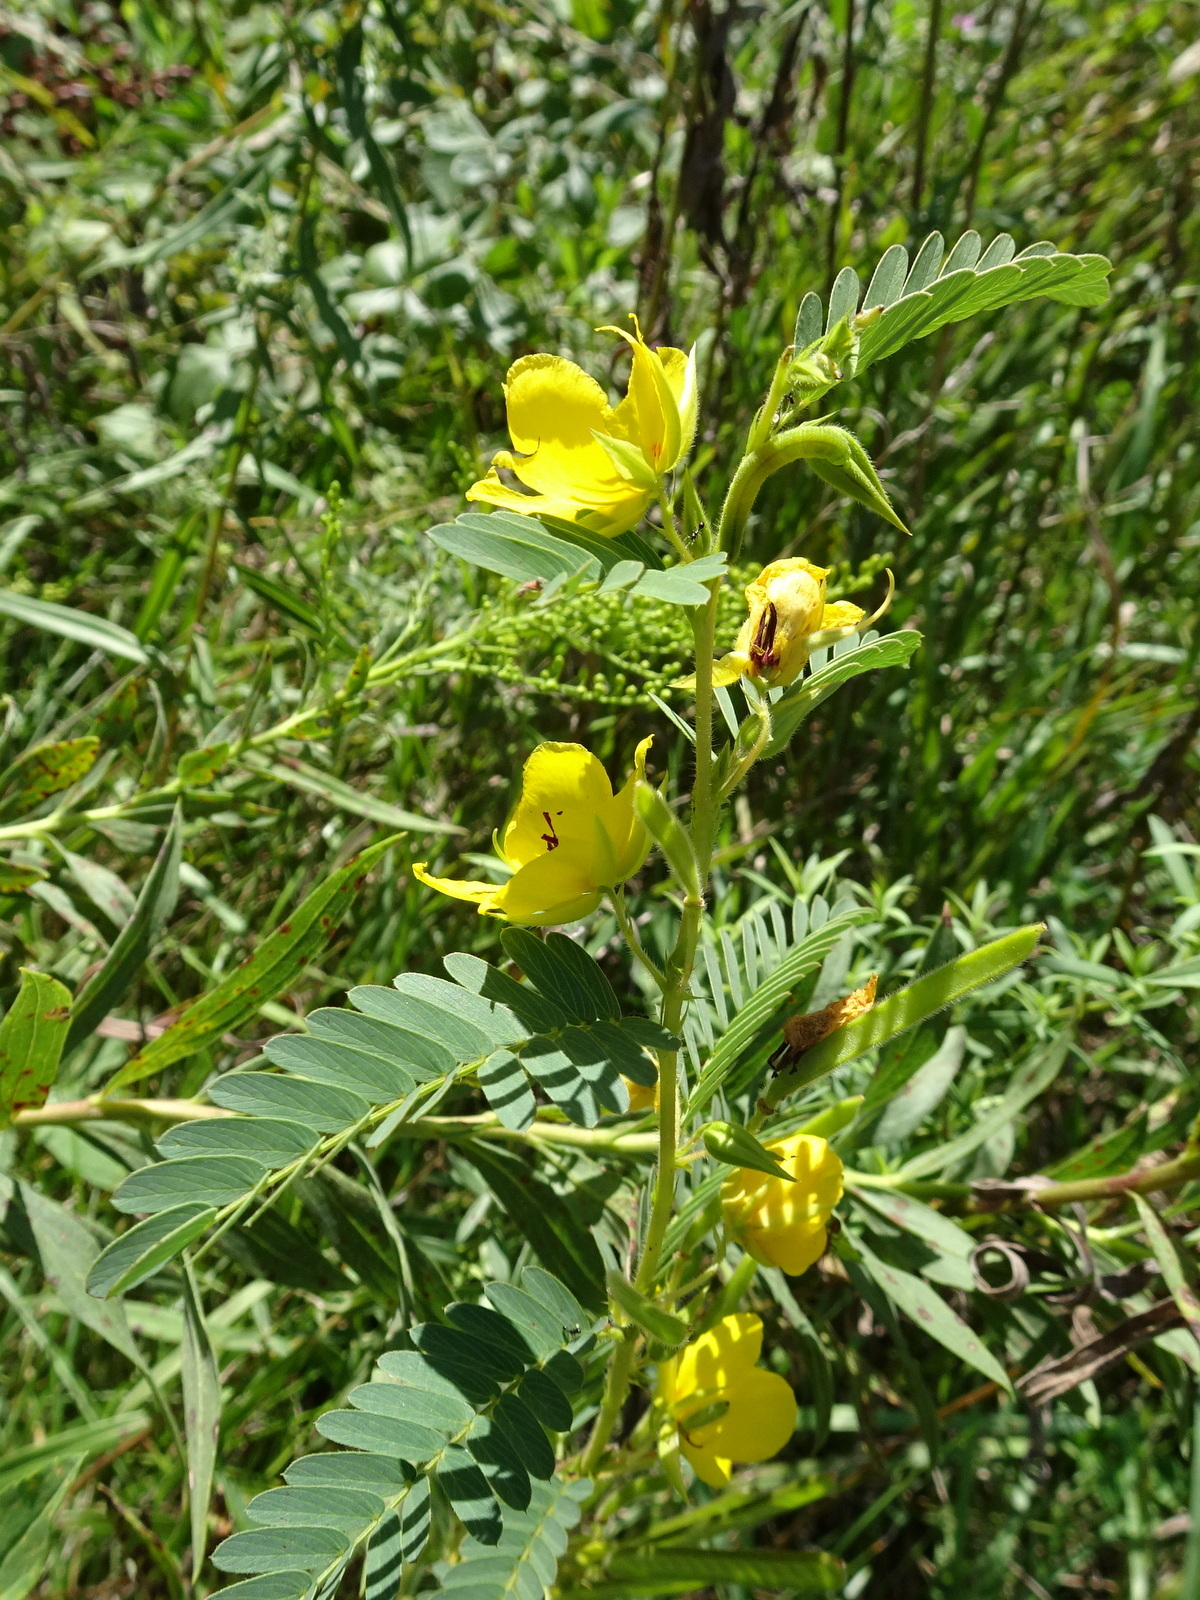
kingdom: Plantae
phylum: Tracheophyta
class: Magnoliopsida
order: Fabales
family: Fabaceae
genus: Chamaecrista
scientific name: Chamaecrista fasciculata
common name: Golden cassia
